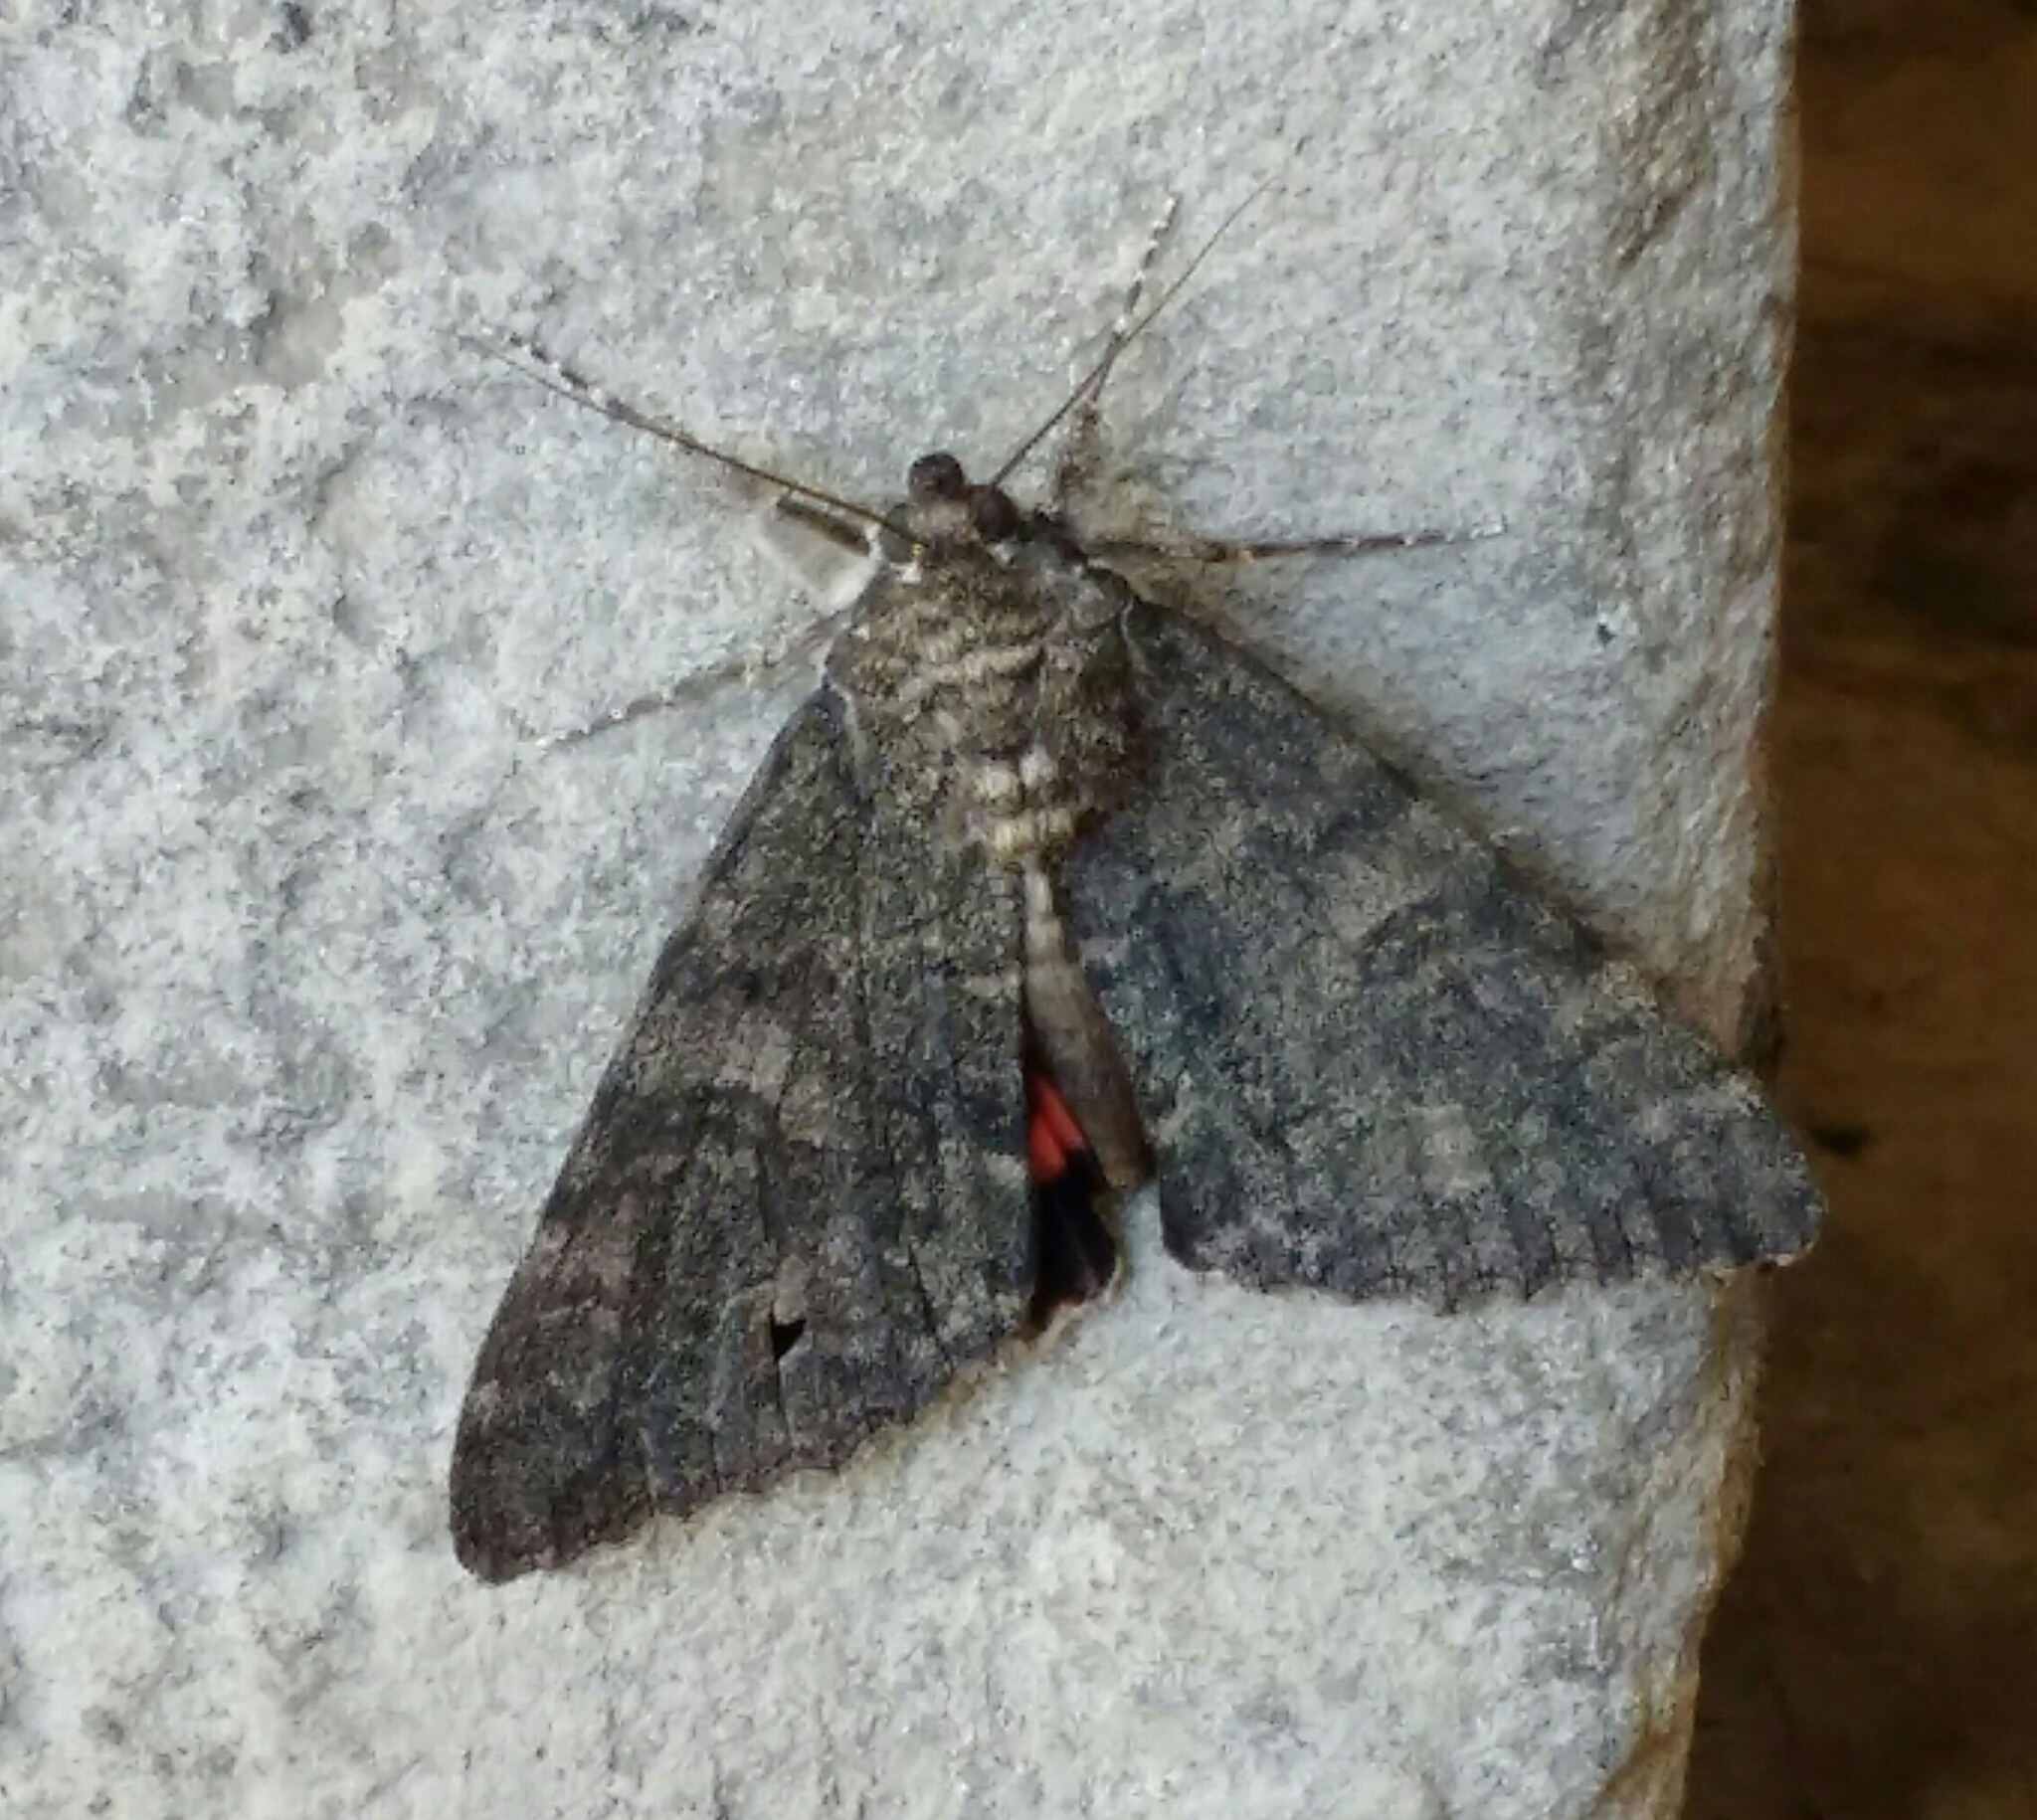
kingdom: Animalia
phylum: Arthropoda
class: Insecta
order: Lepidoptera
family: Erebidae
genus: Catocala
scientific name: Catocala nupta
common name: Red underwing
